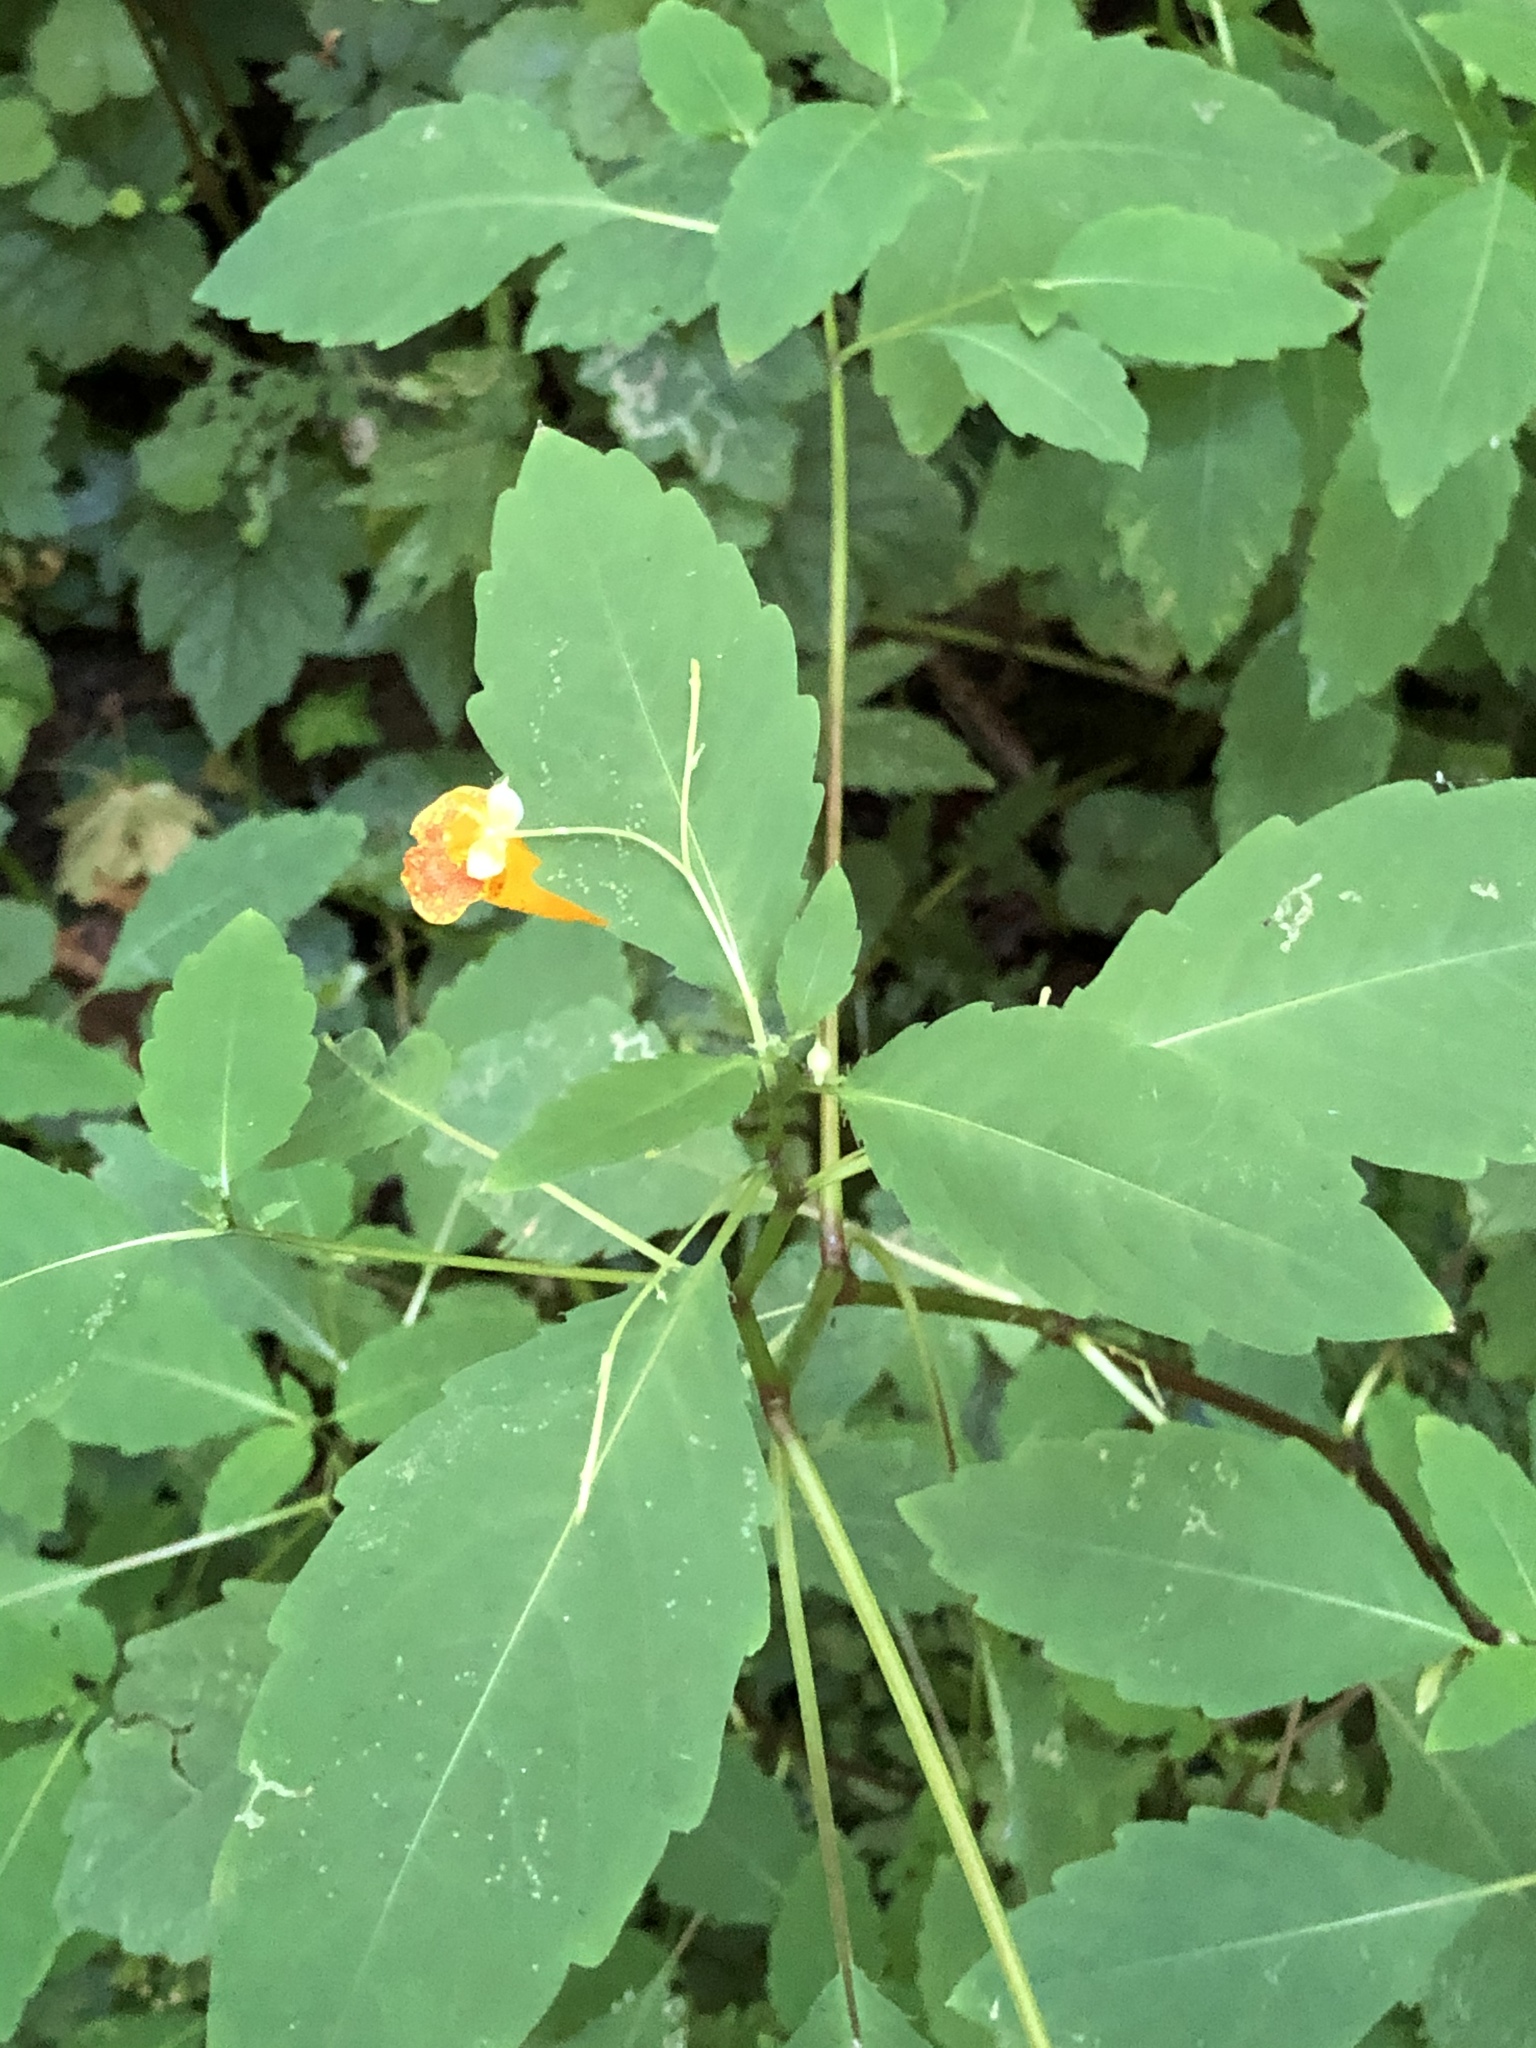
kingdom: Plantae
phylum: Tracheophyta
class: Magnoliopsida
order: Ericales
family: Balsaminaceae
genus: Impatiens
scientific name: Impatiens capensis
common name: Orange balsam
